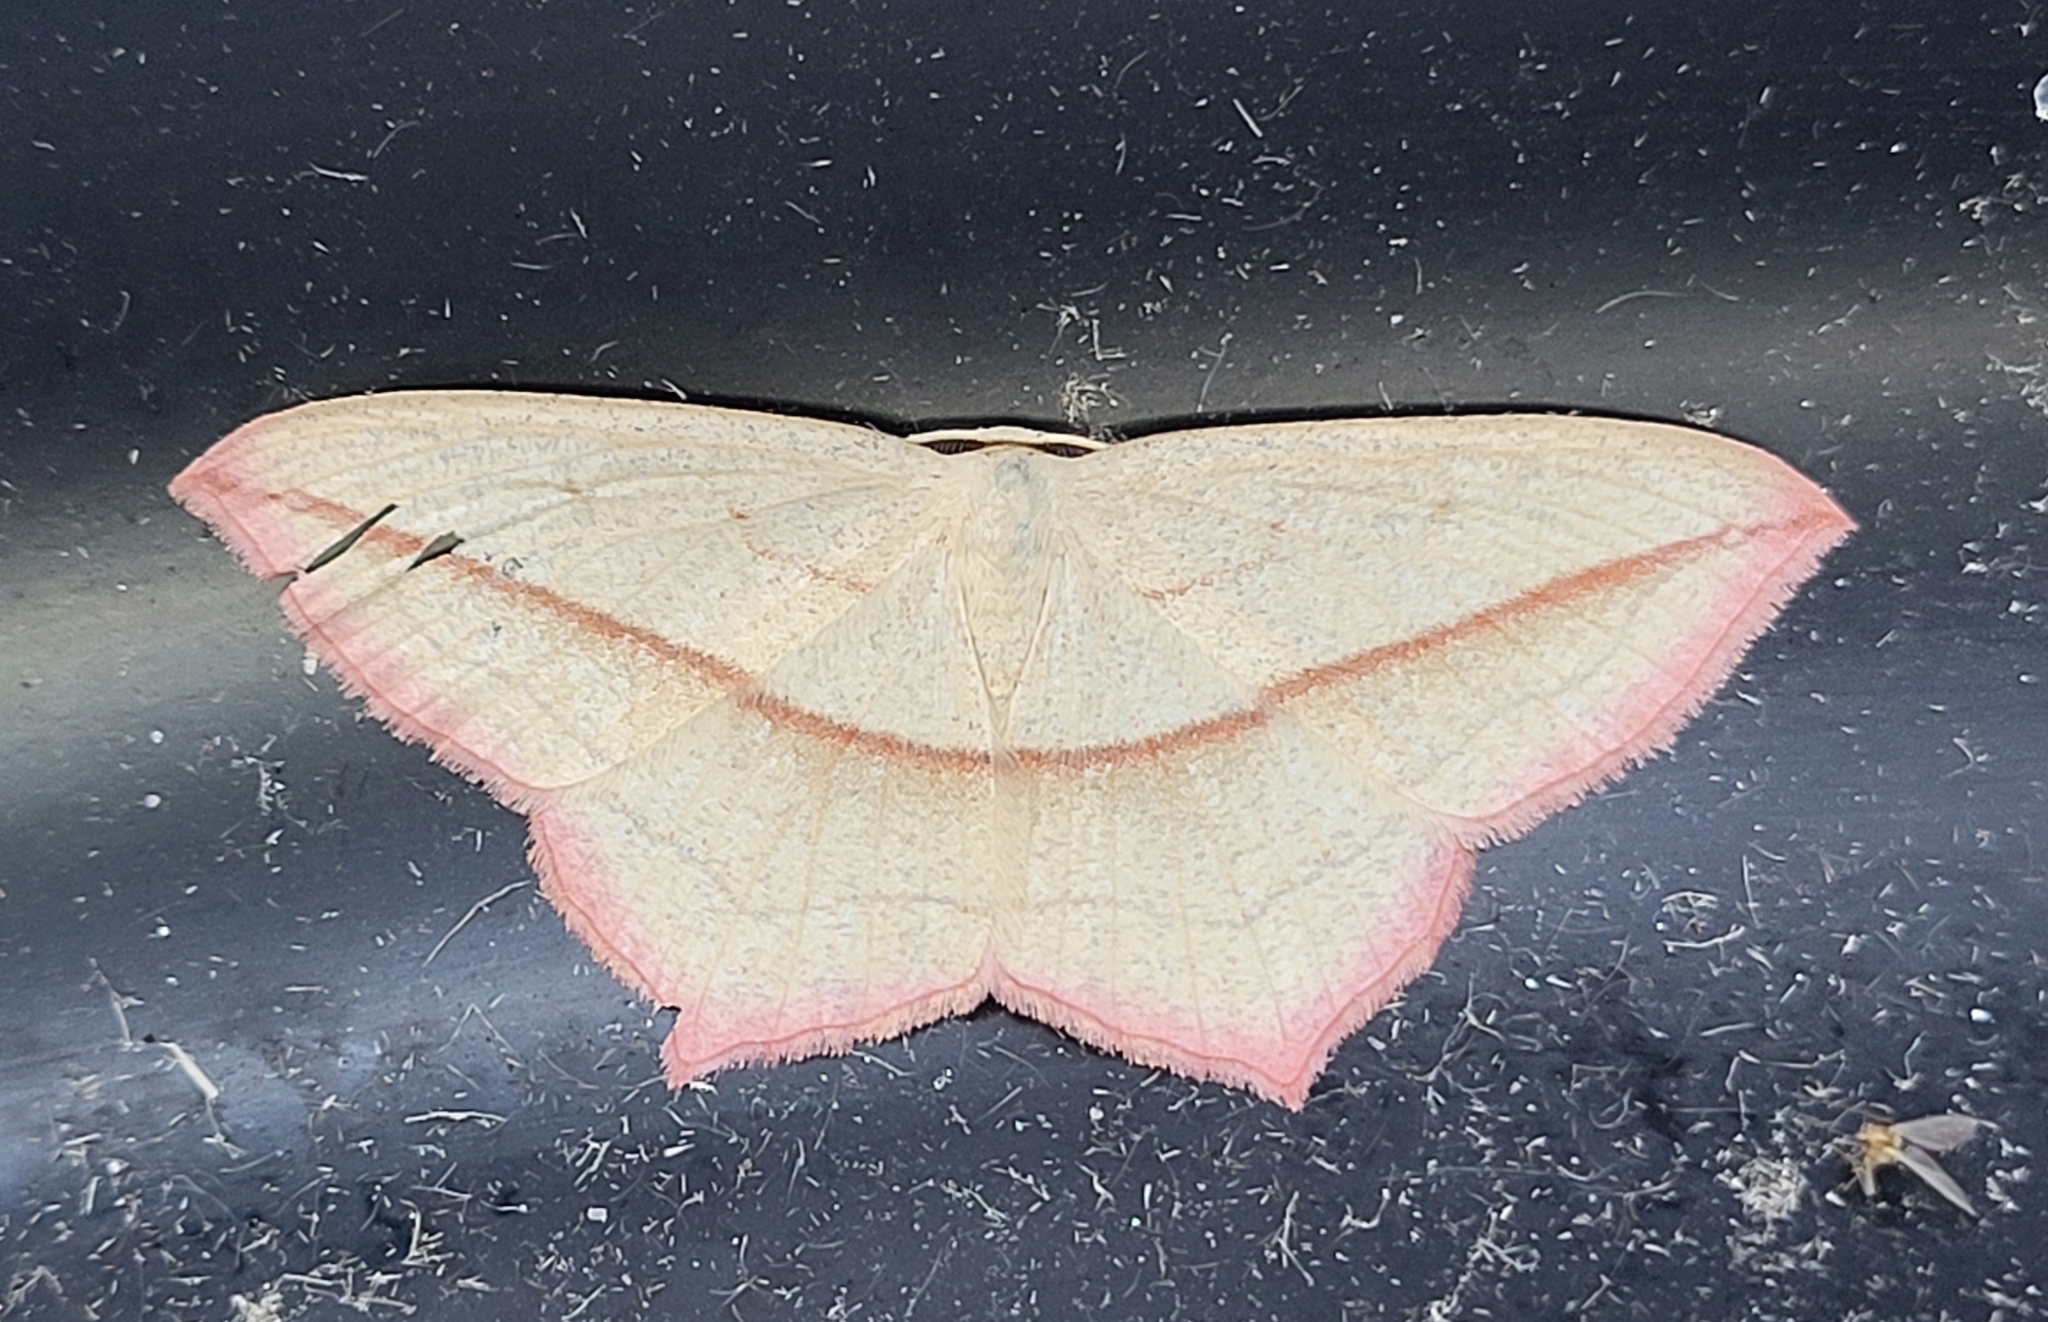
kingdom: Animalia
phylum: Arthropoda
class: Insecta
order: Lepidoptera
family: Geometridae
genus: Timandra
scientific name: Timandra comae
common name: Blood-vein
